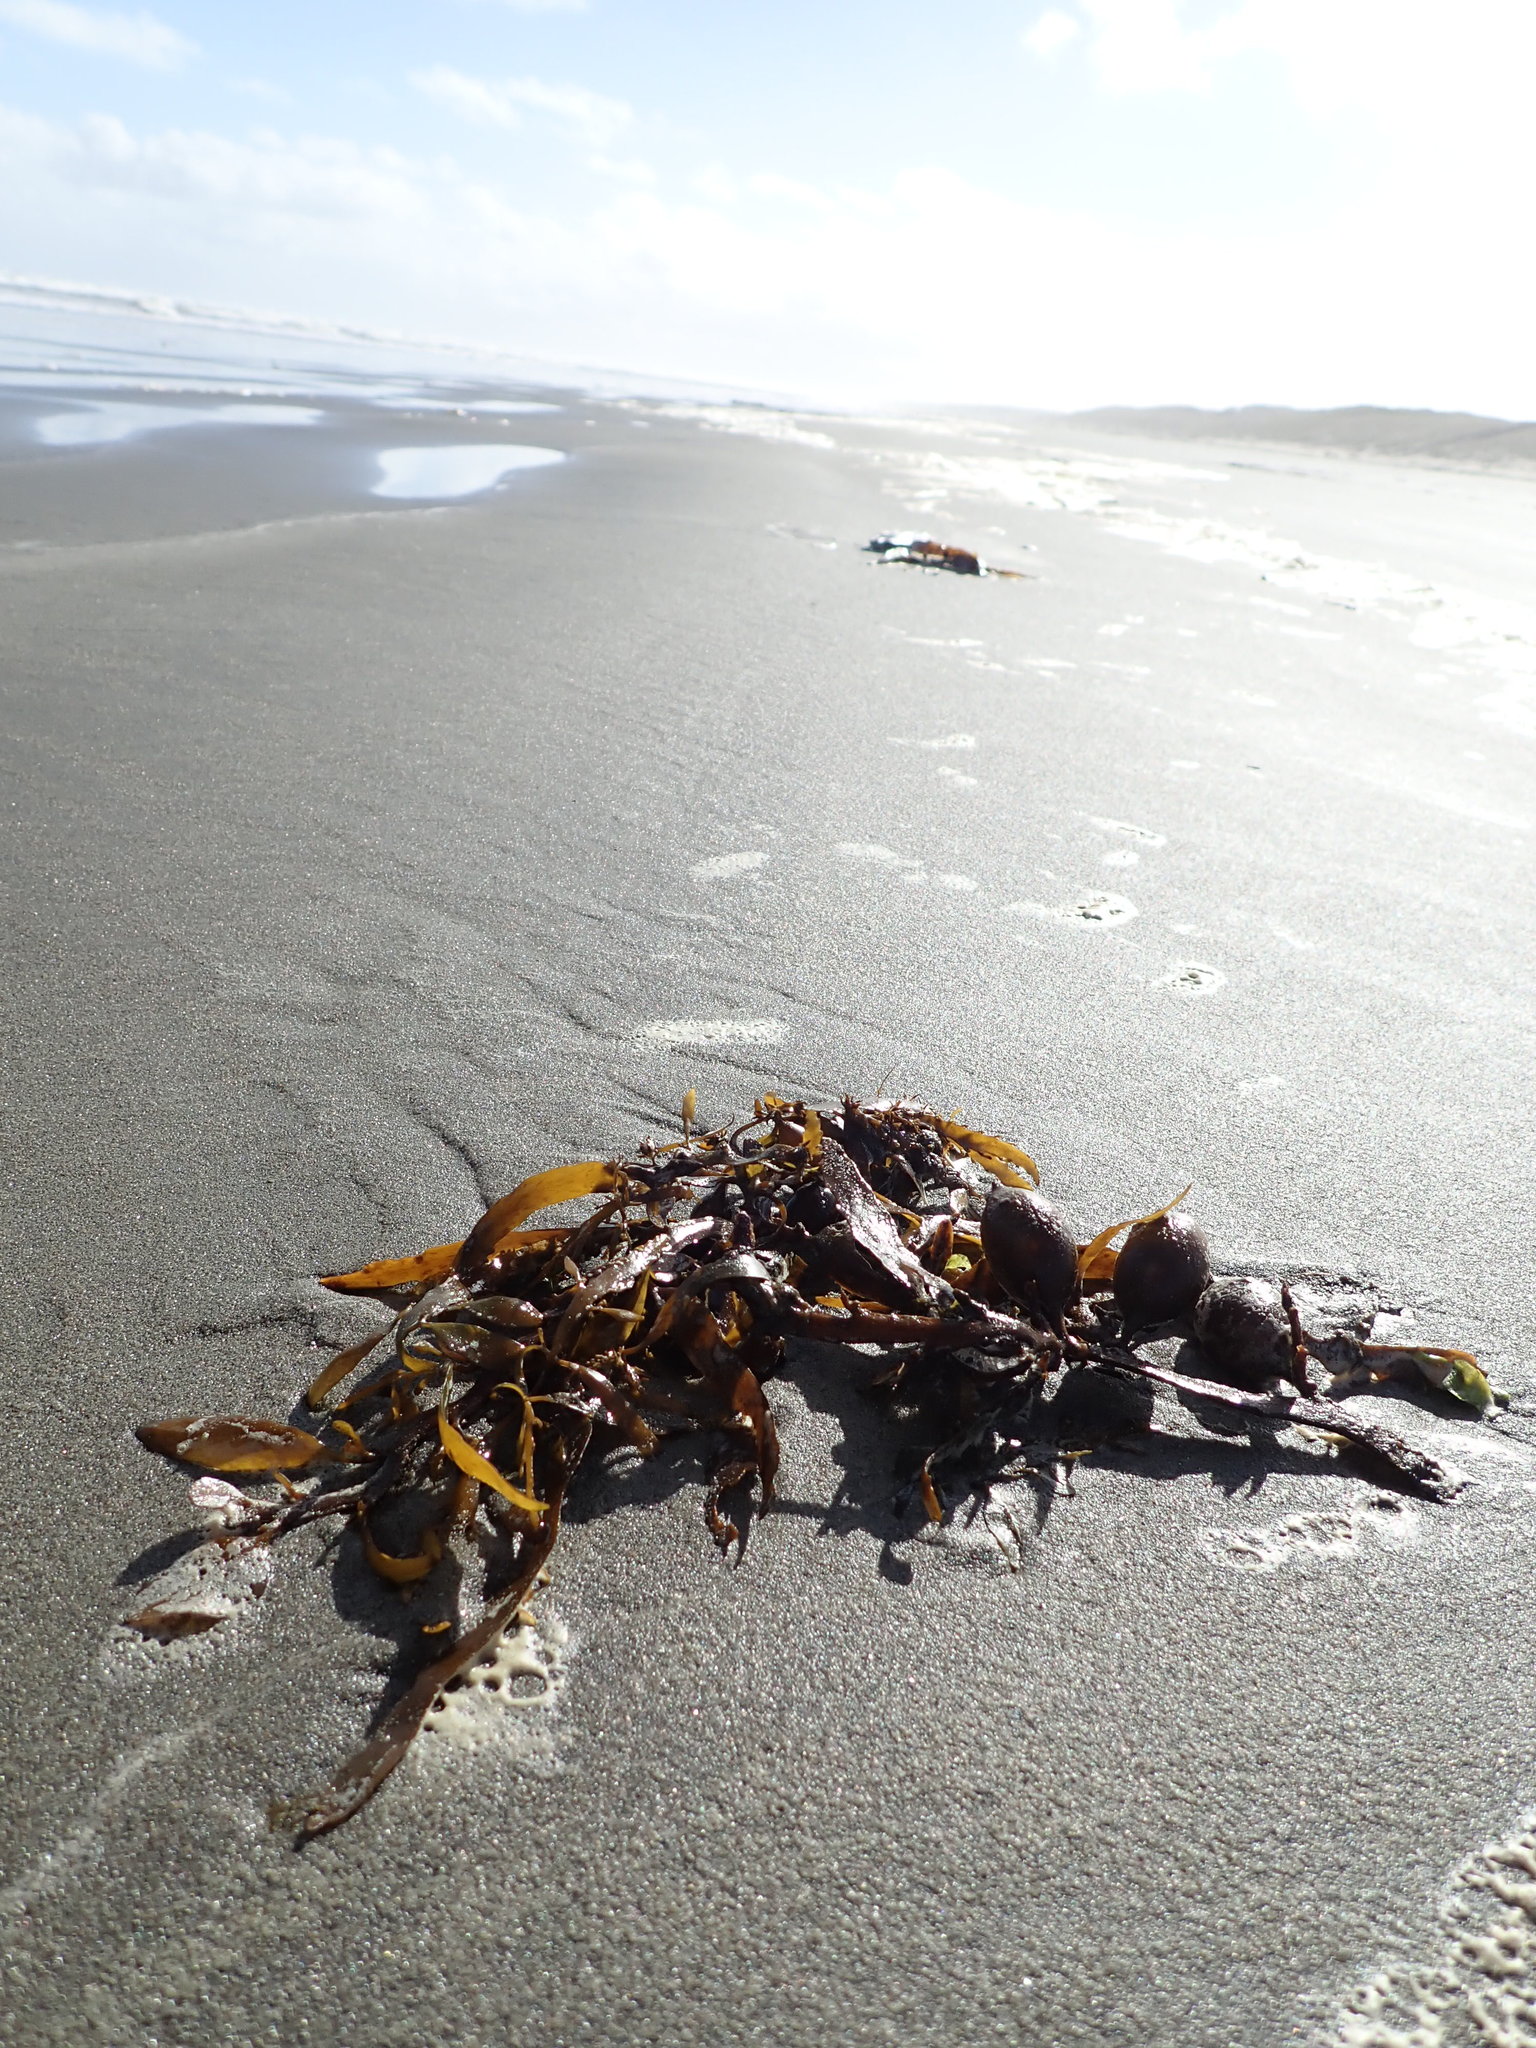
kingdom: Chromista
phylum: Ochrophyta
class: Phaeophyceae
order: Fucales
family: Sargassaceae
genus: Carpophyllum
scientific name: Carpophyllum flexuosum
